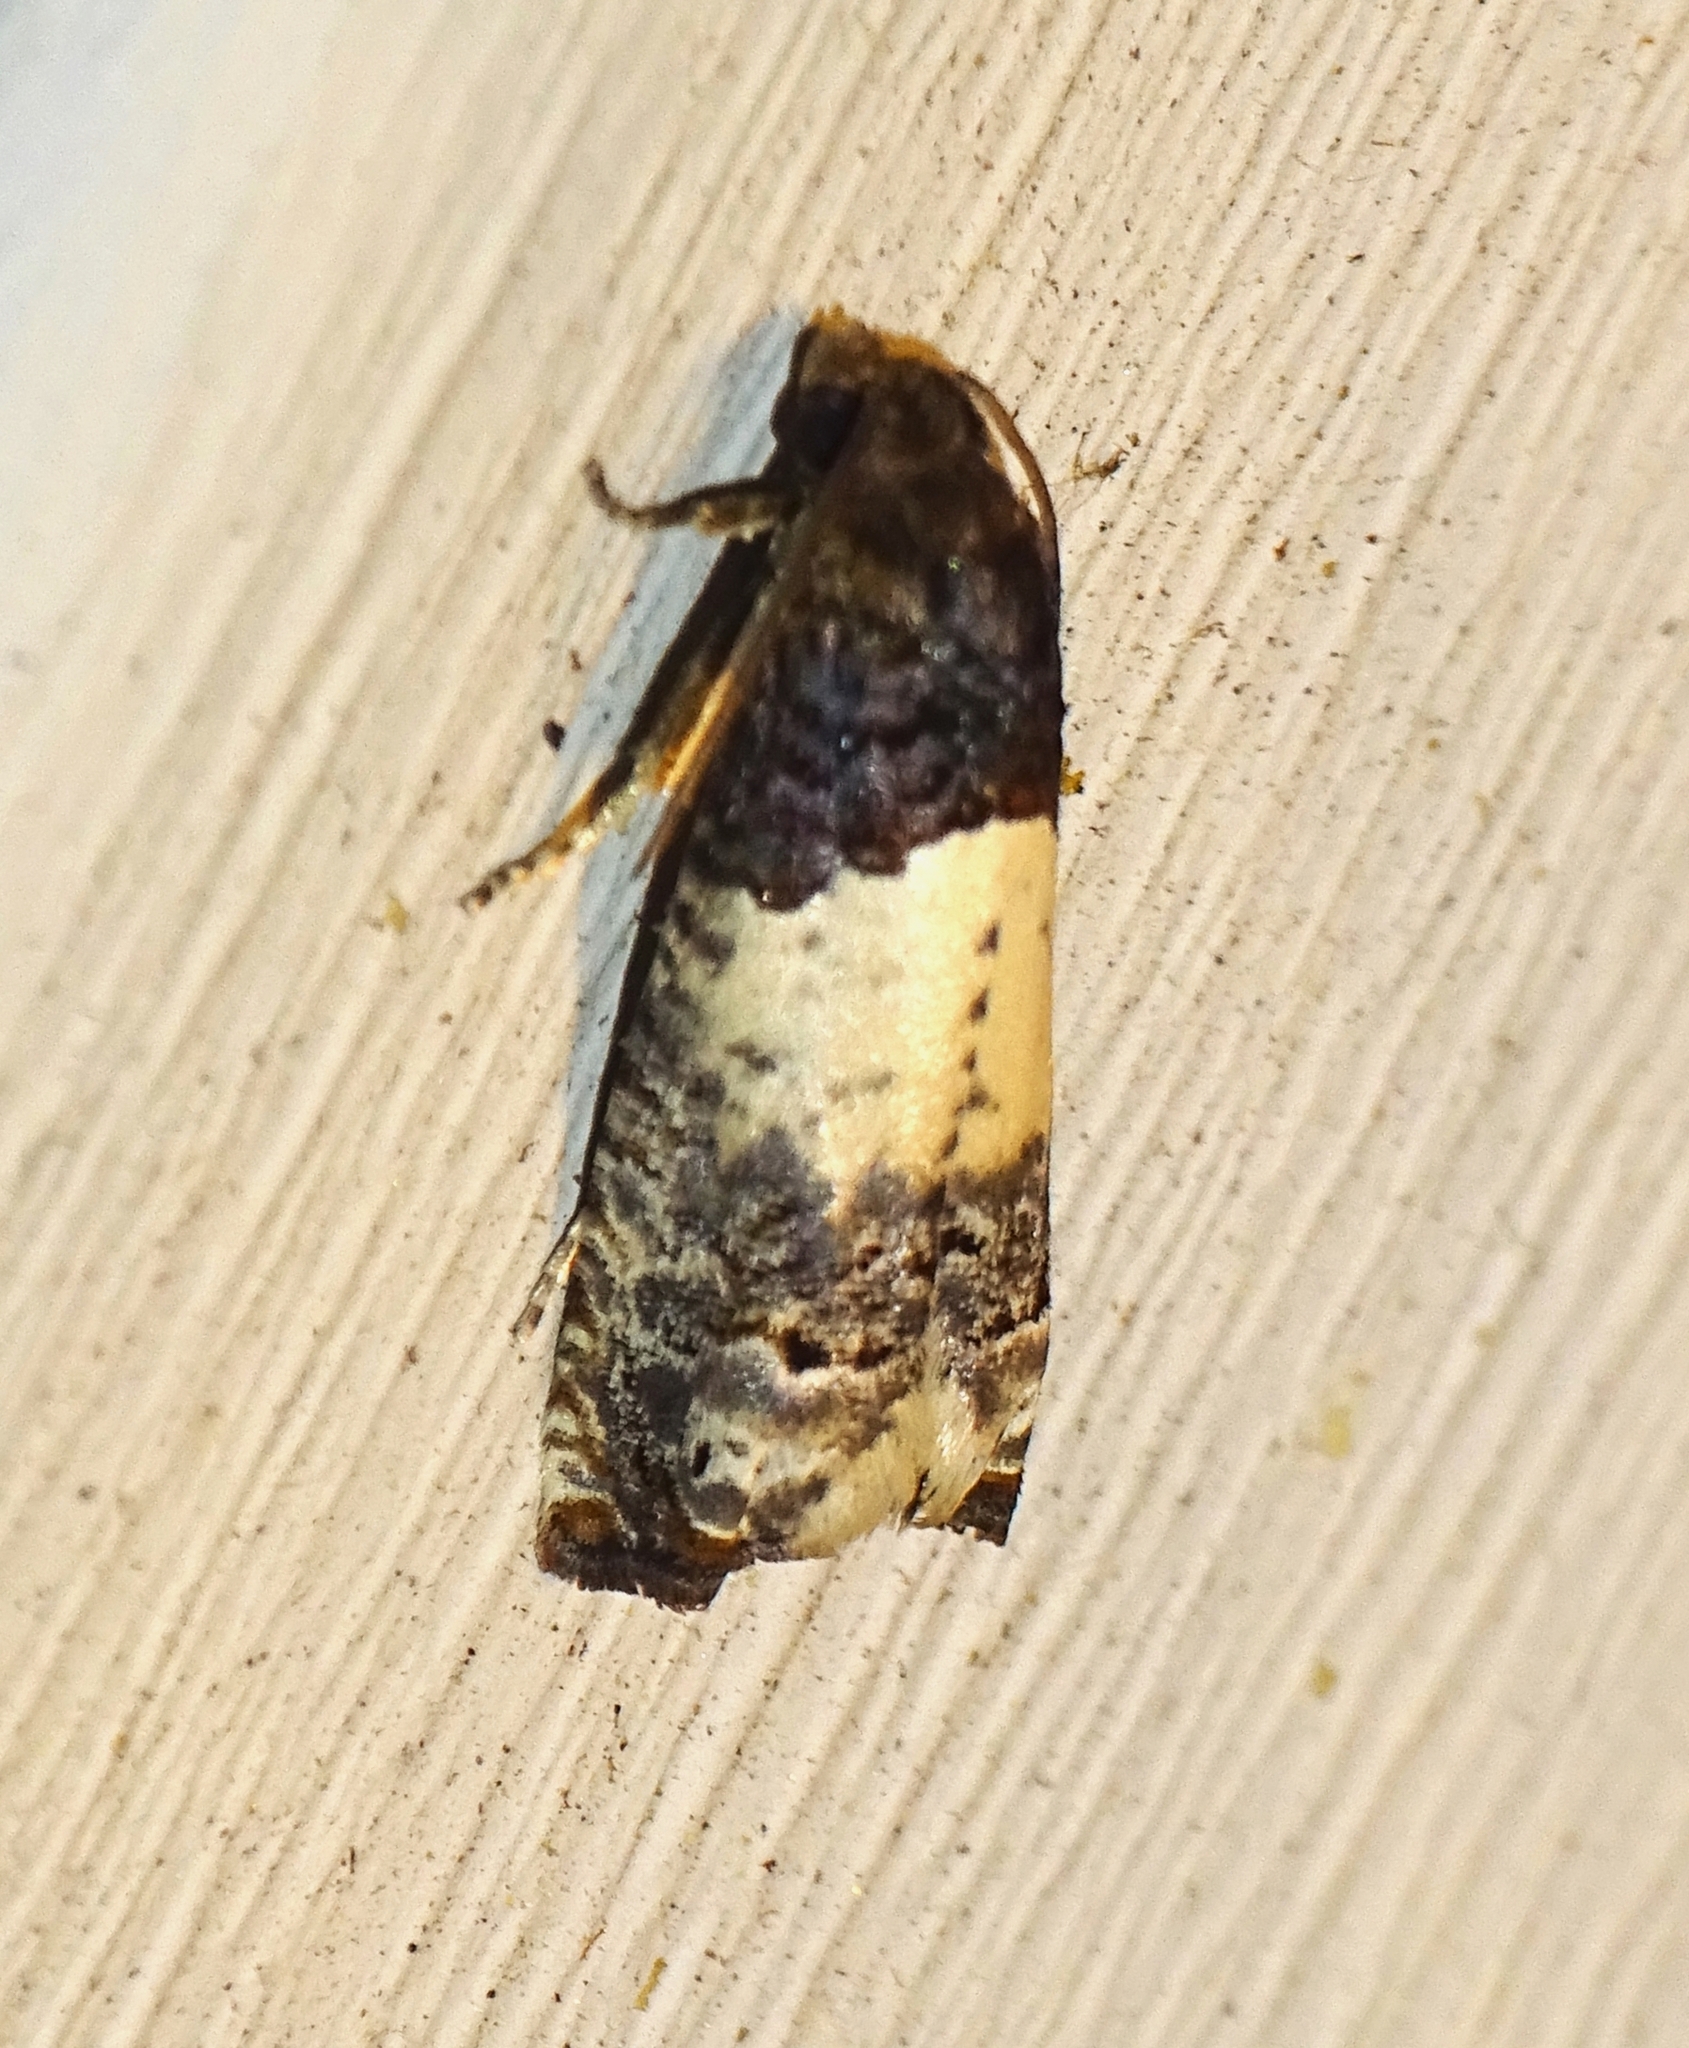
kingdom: Animalia
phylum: Arthropoda
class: Insecta
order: Lepidoptera
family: Tortricidae
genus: Epiblema
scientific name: Epiblema scudderiana
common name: Goldenrod gall moth
